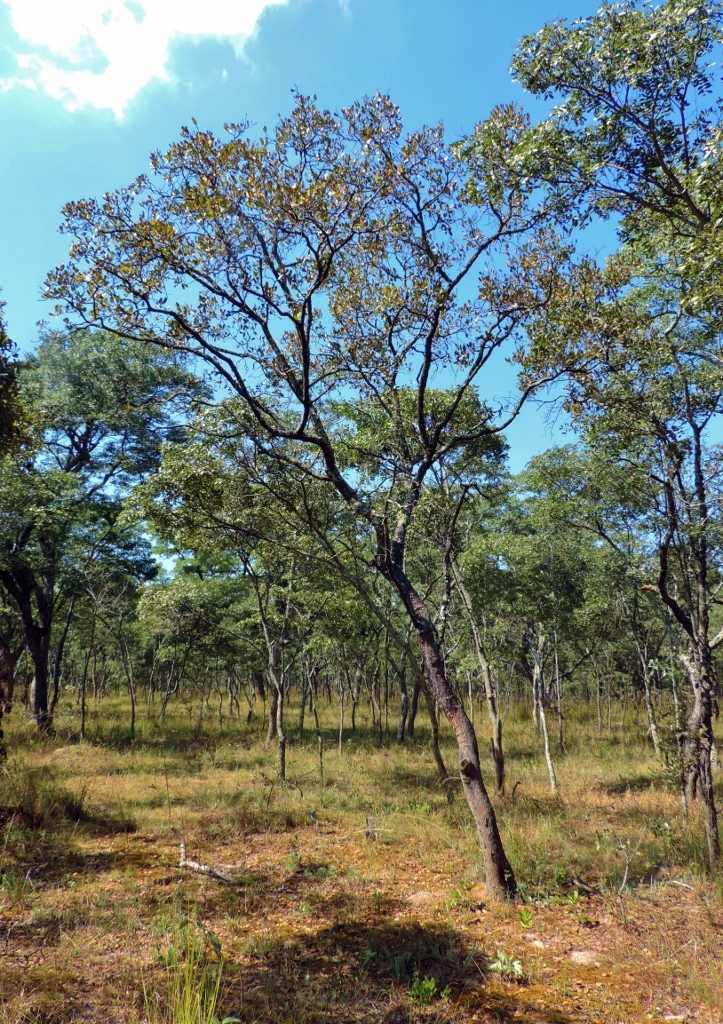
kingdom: Plantae
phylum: Tracheophyta
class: Magnoliopsida
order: Malvales
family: Dipterocarpaceae
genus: Monotes
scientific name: Monotes glaber
